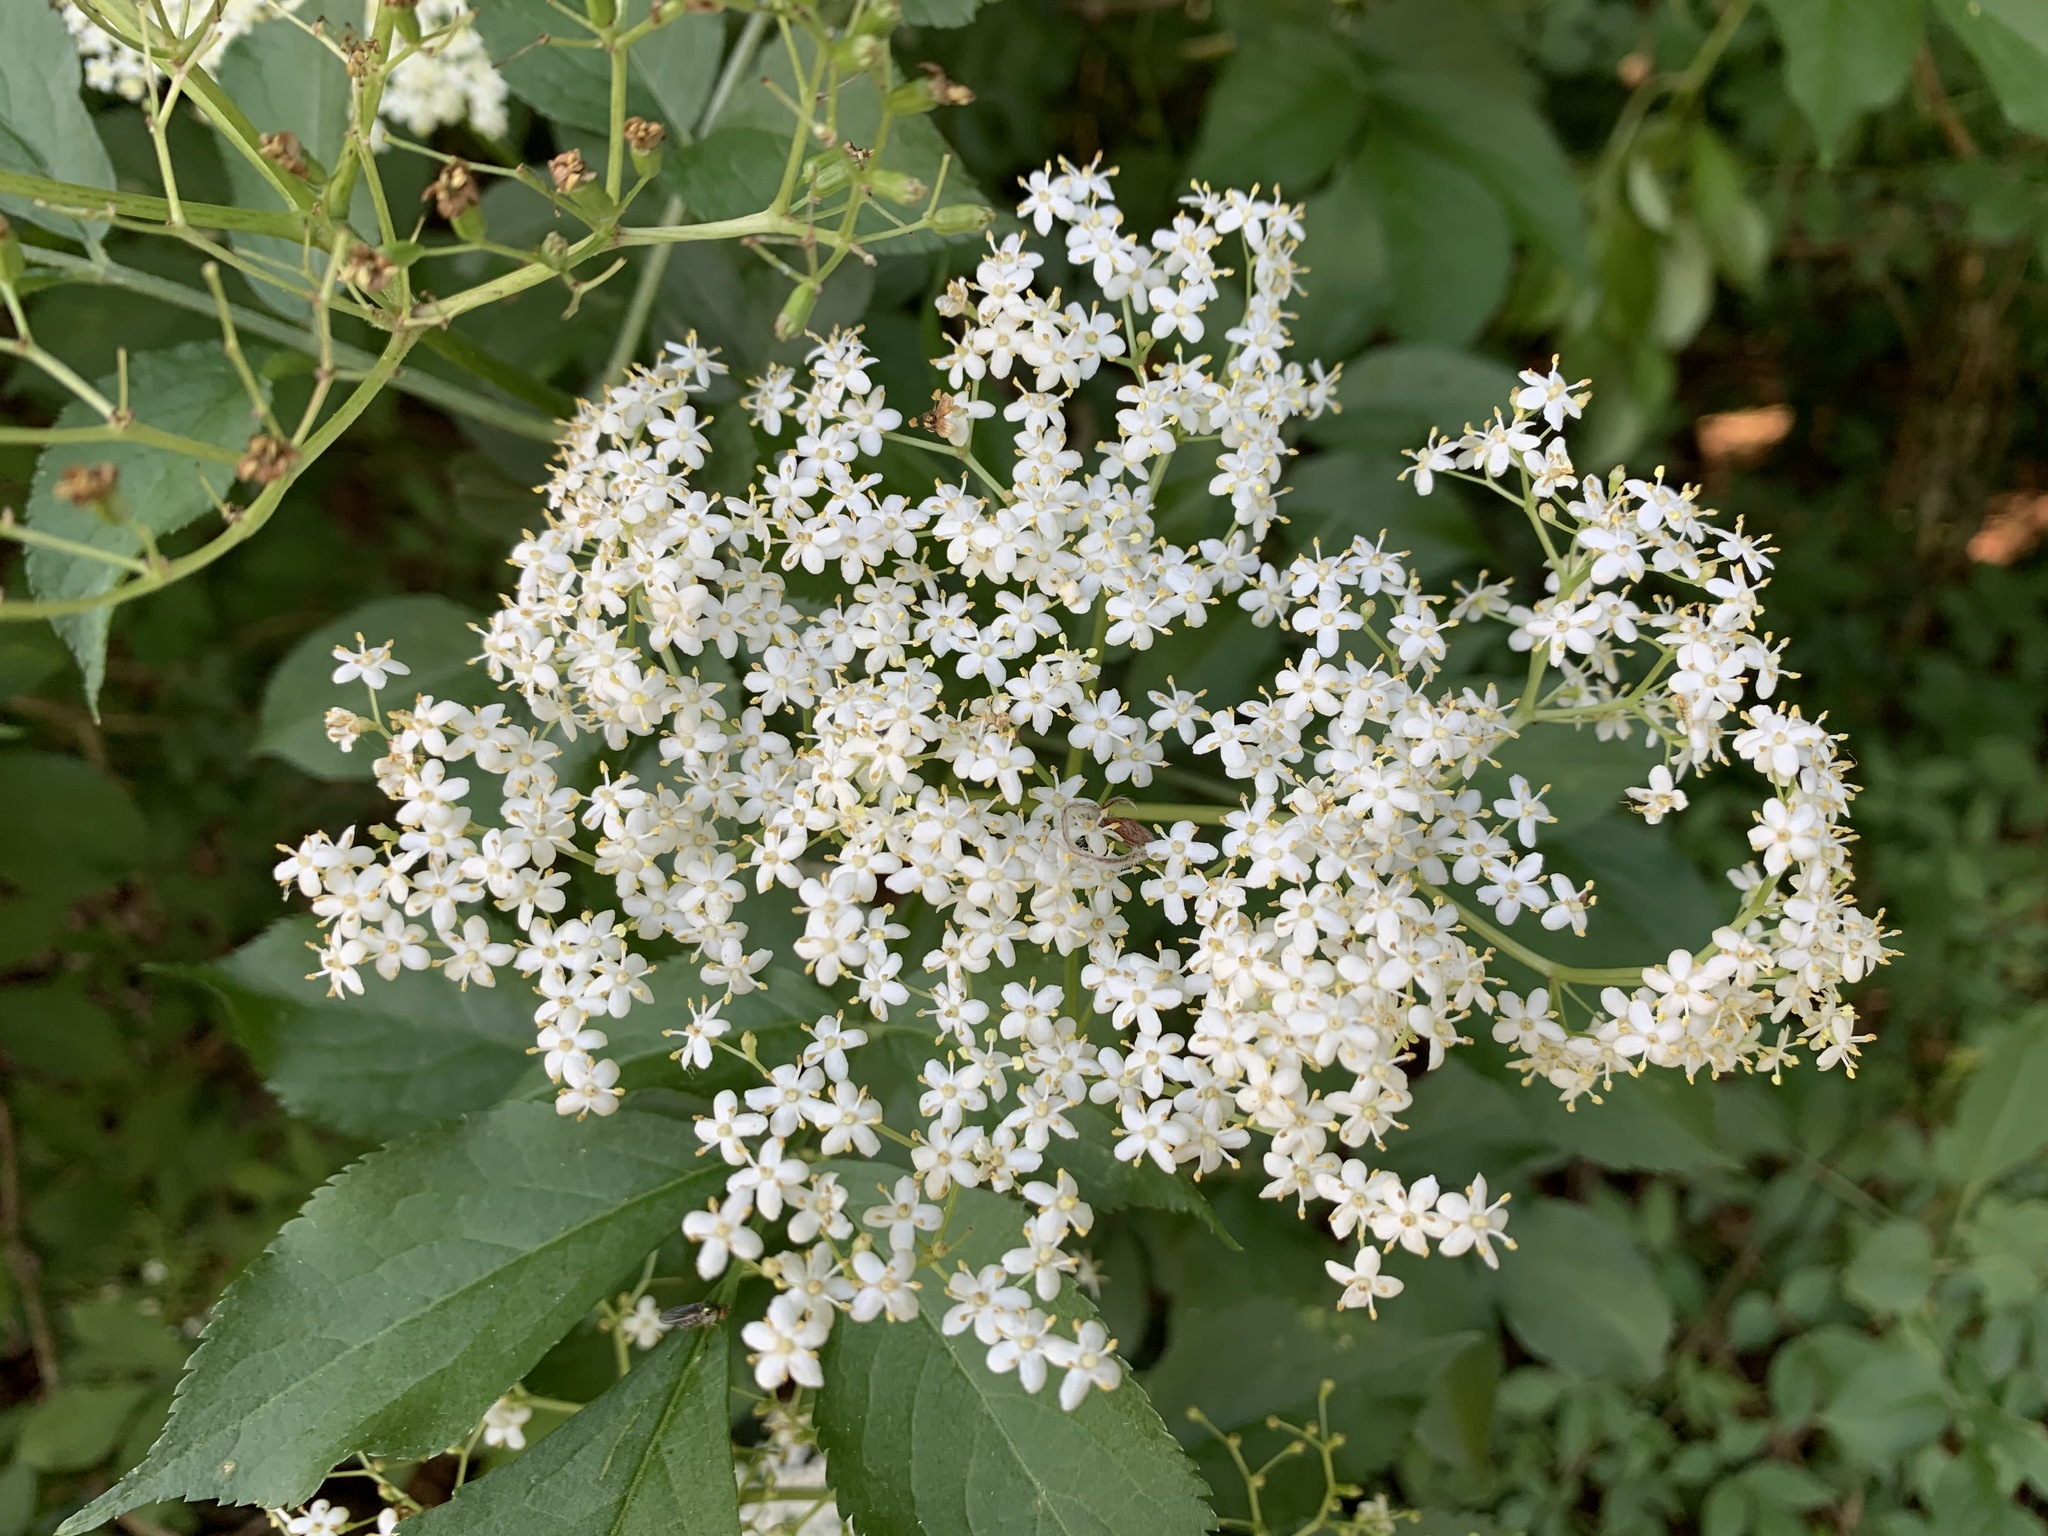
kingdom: Plantae
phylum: Tracheophyta
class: Magnoliopsida
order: Dipsacales
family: Viburnaceae
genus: Sambucus
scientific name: Sambucus nigra
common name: Elder
